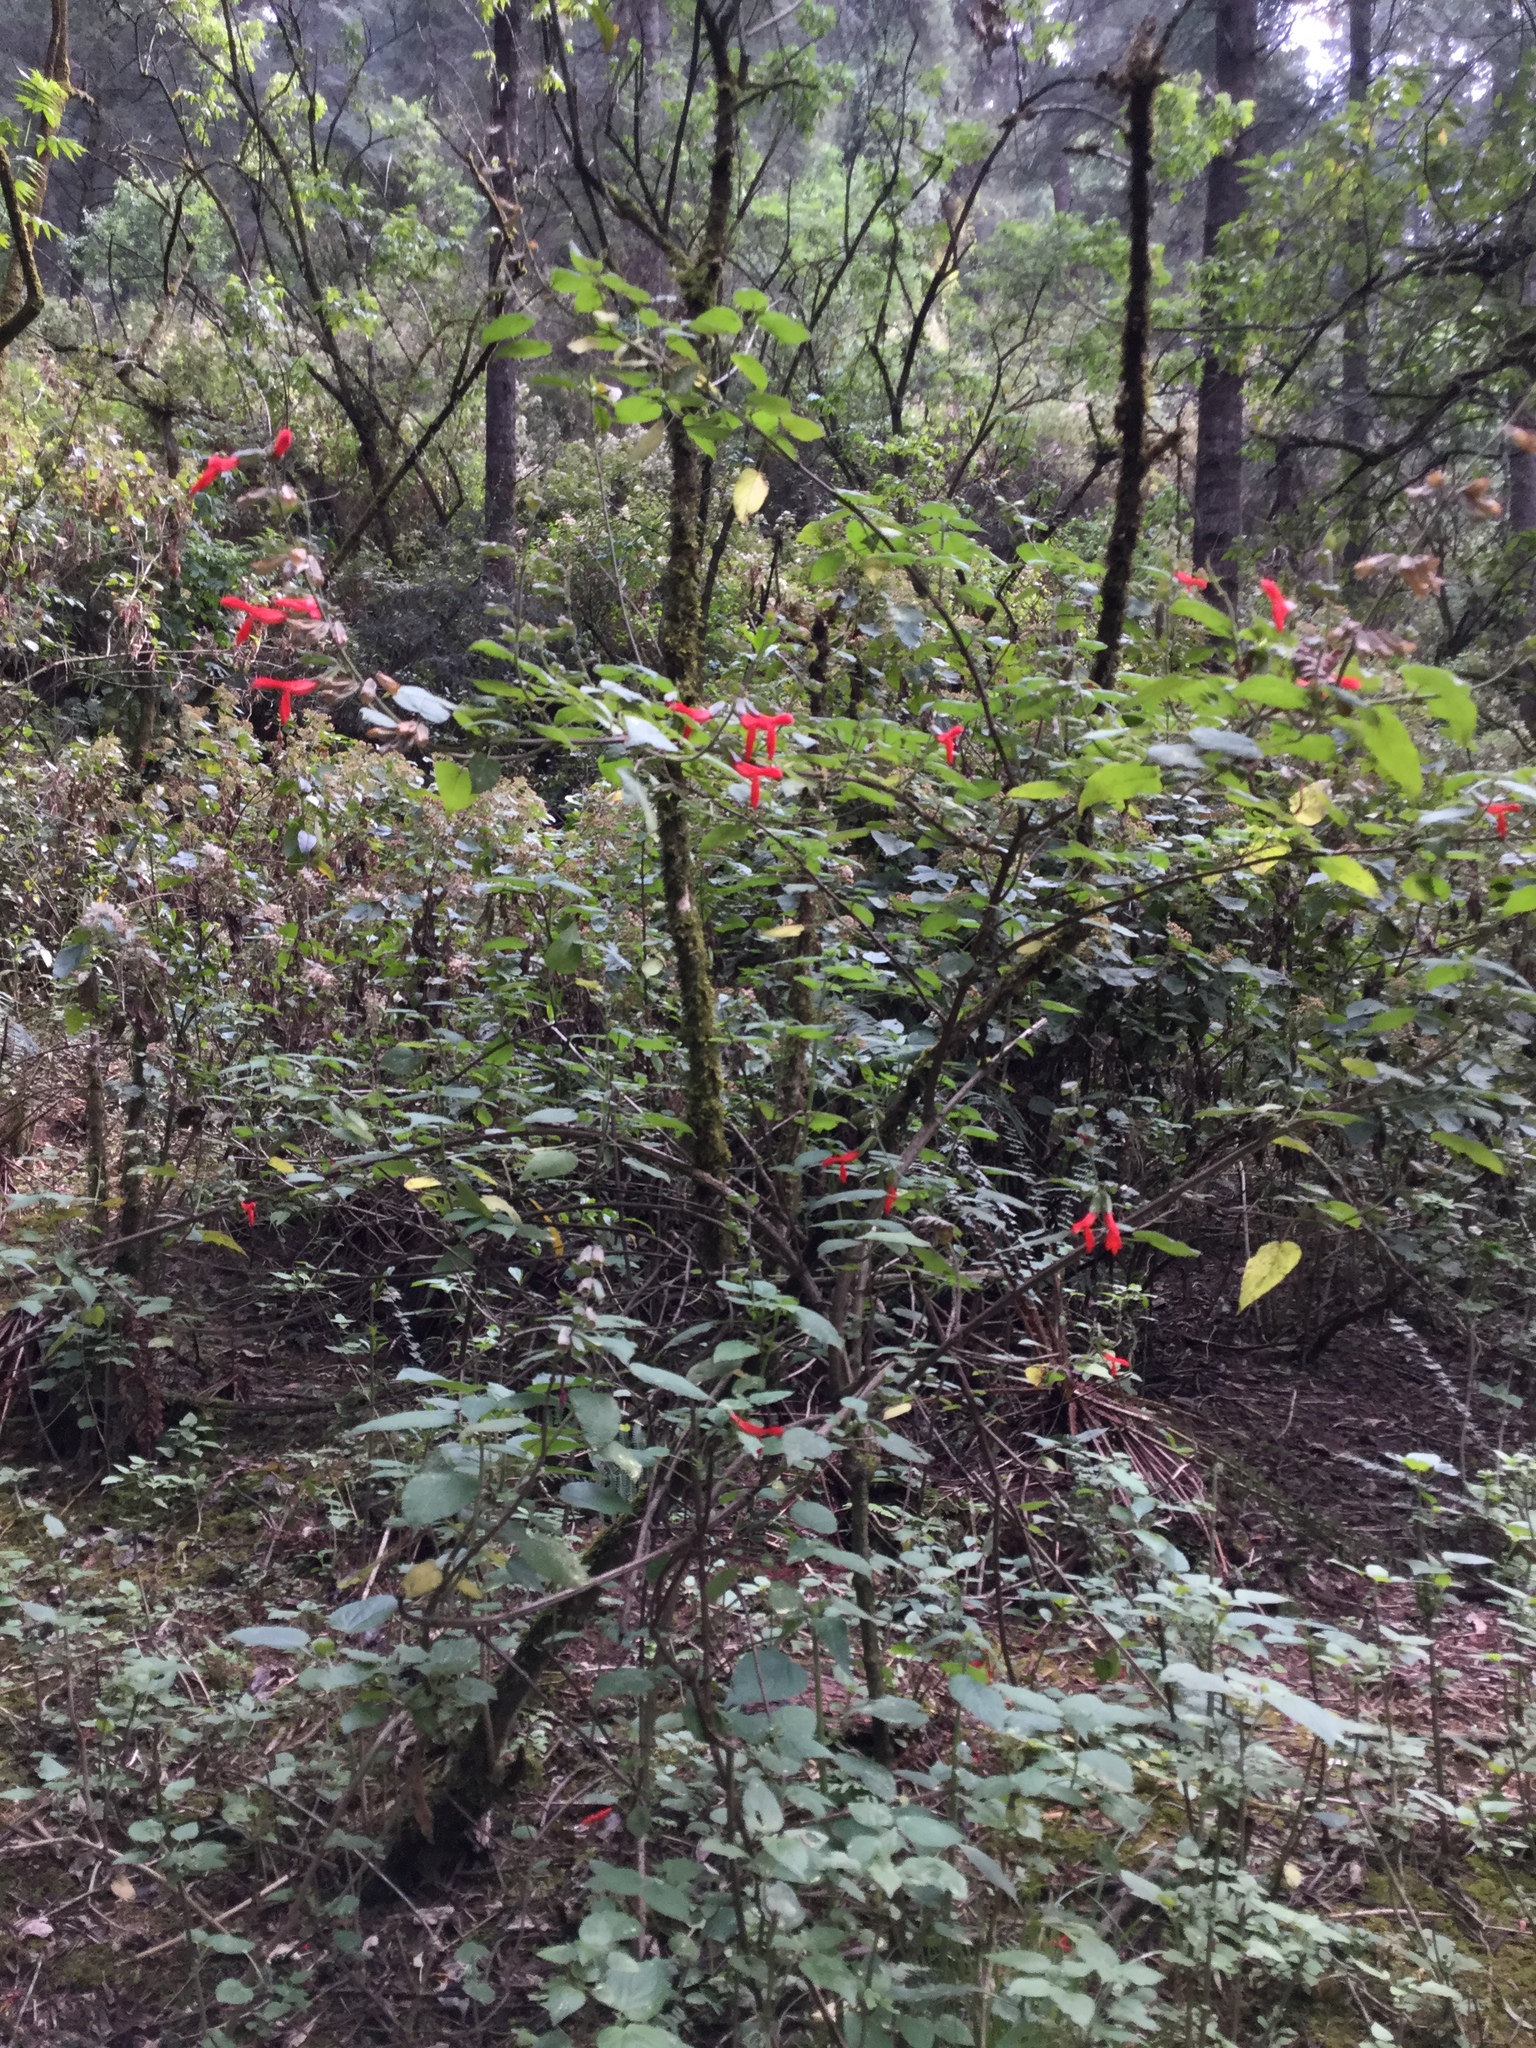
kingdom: Plantae
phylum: Tracheophyta
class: Magnoliopsida
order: Lamiales
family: Lamiaceae
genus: Salvia
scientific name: Salvia gesneriiflora
